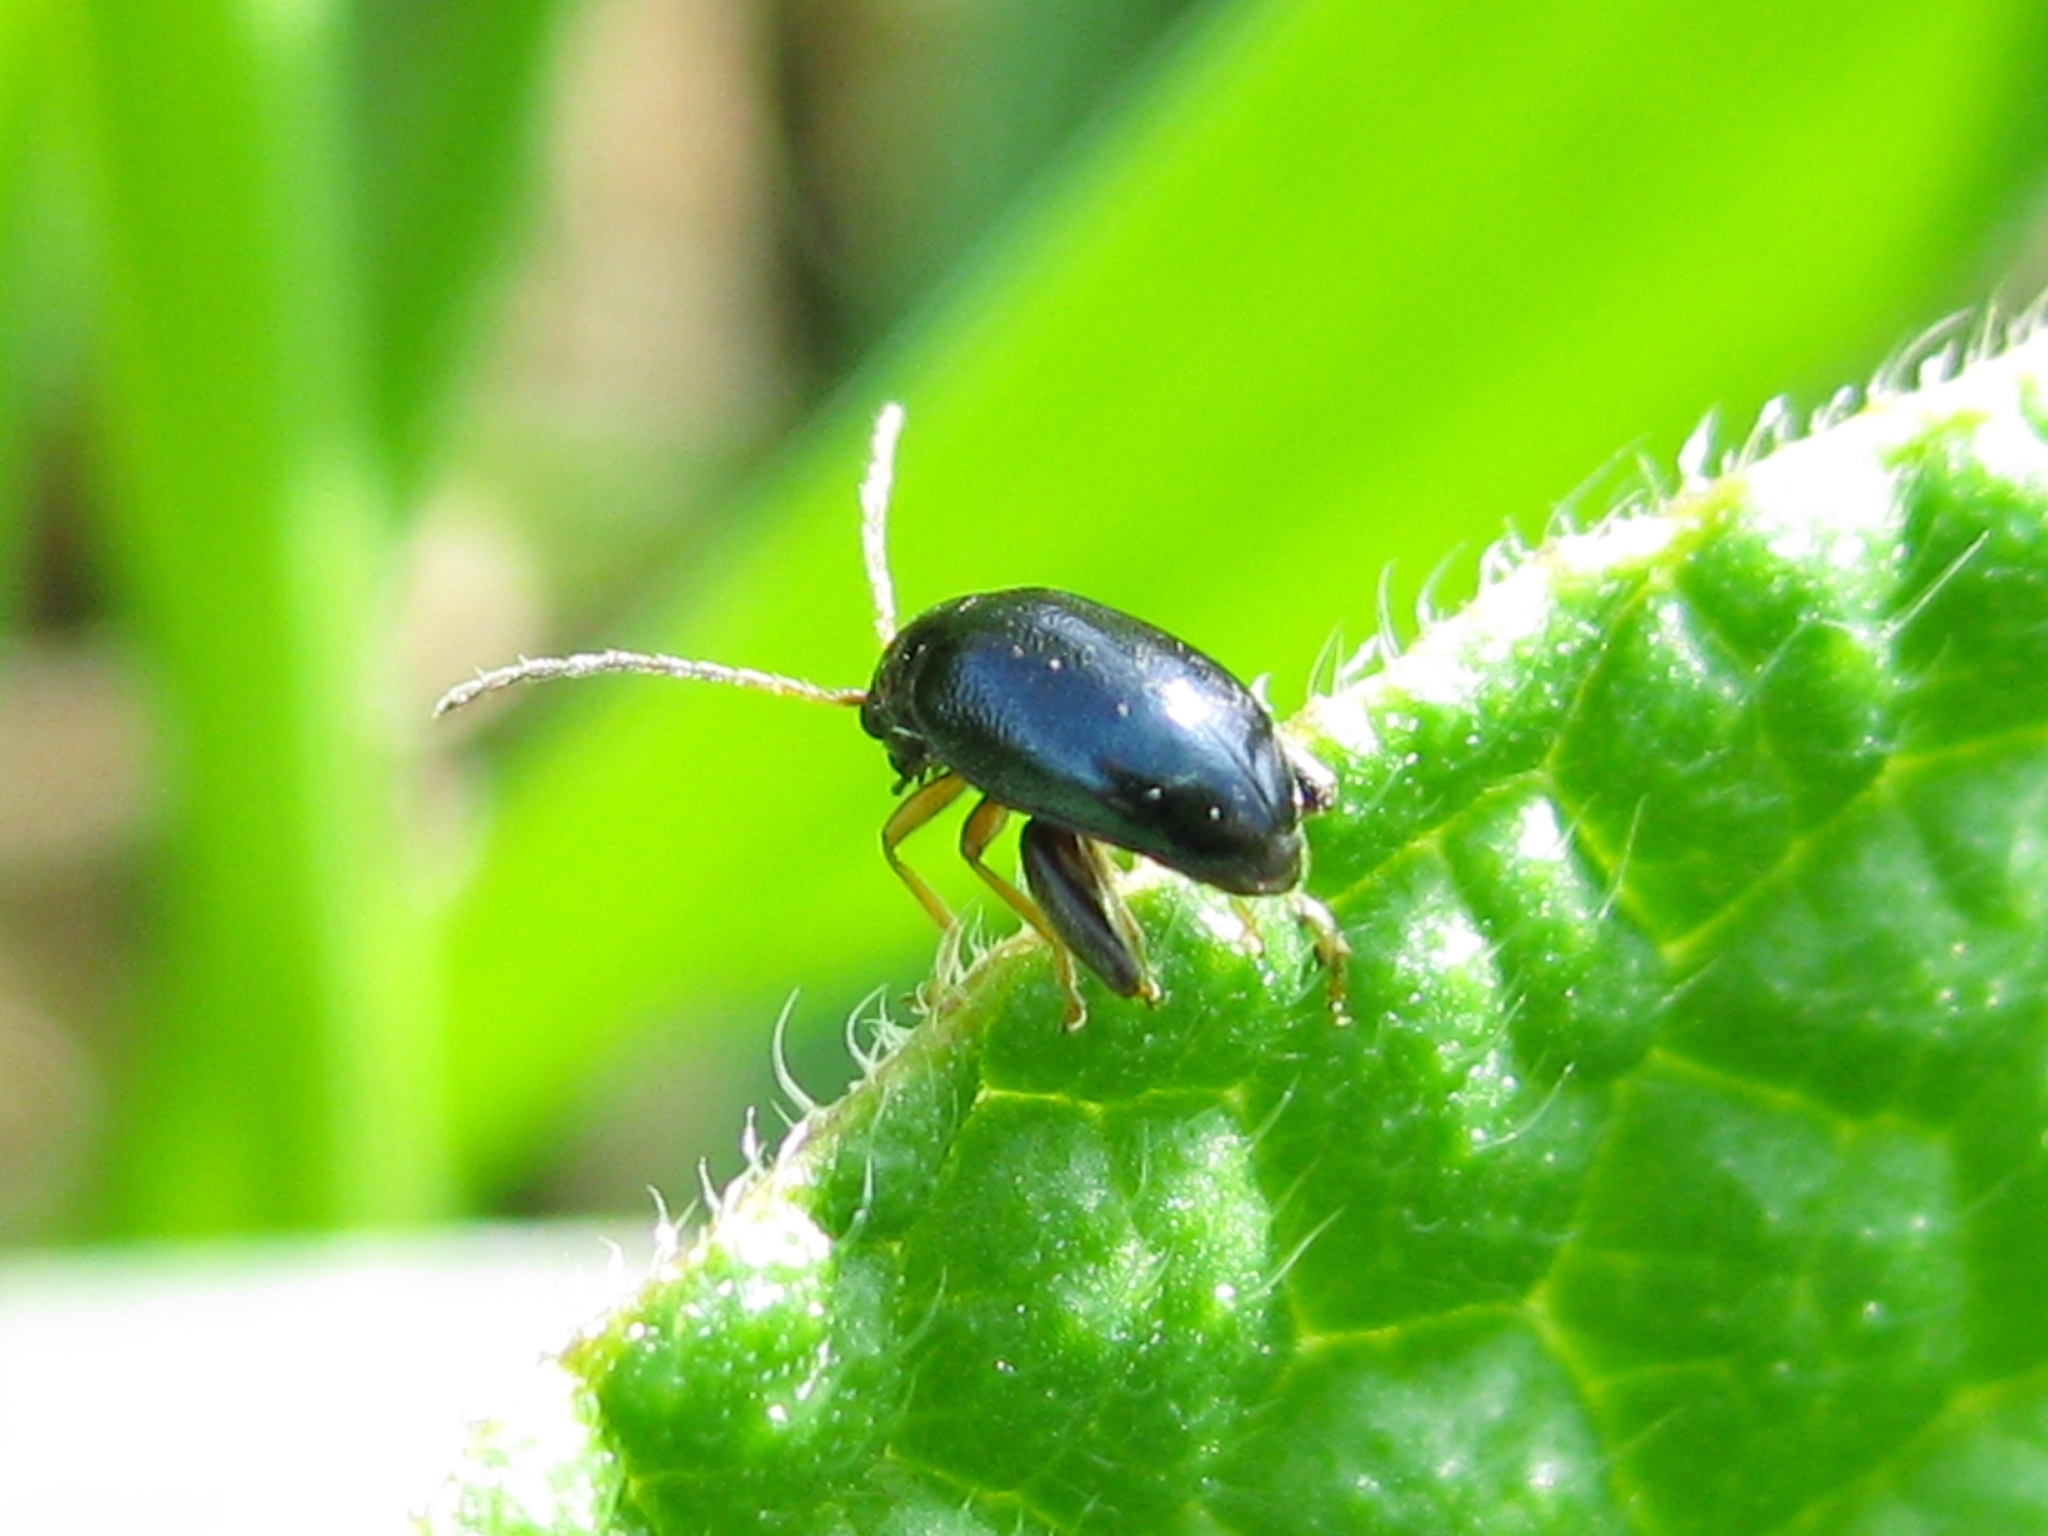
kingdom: Animalia
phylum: Arthropoda
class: Insecta
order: Coleoptera
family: Chrysomelidae
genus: Longitarsus
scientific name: Longitarsus
